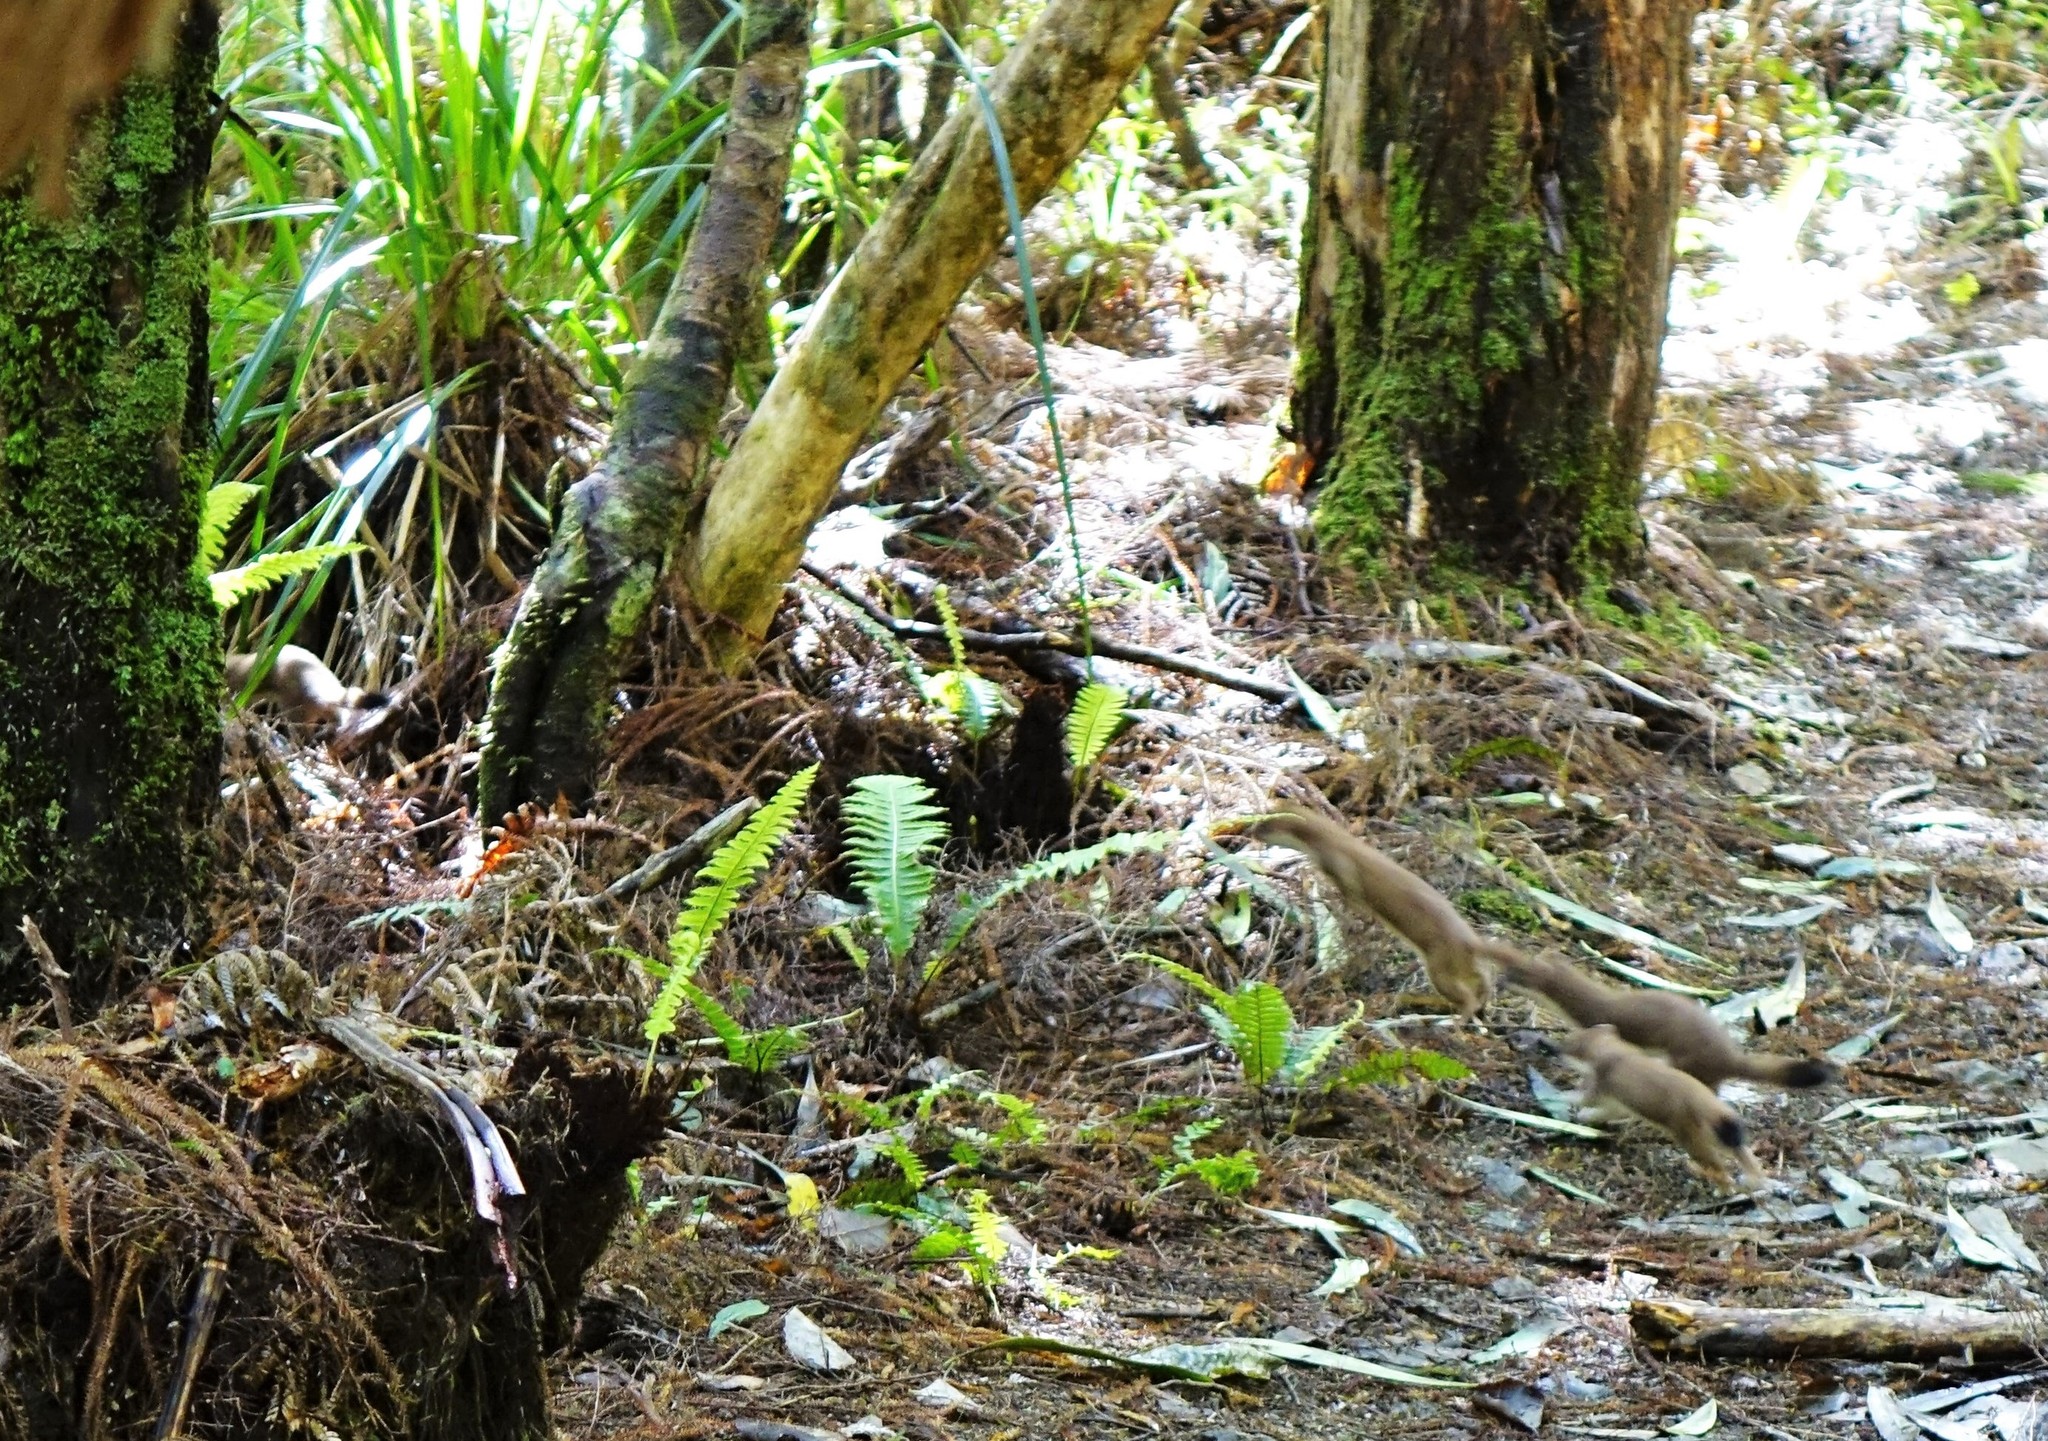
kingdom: Animalia
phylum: Chordata
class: Mammalia
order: Carnivora
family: Mustelidae
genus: Mustela
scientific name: Mustela erminea
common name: Stoat
